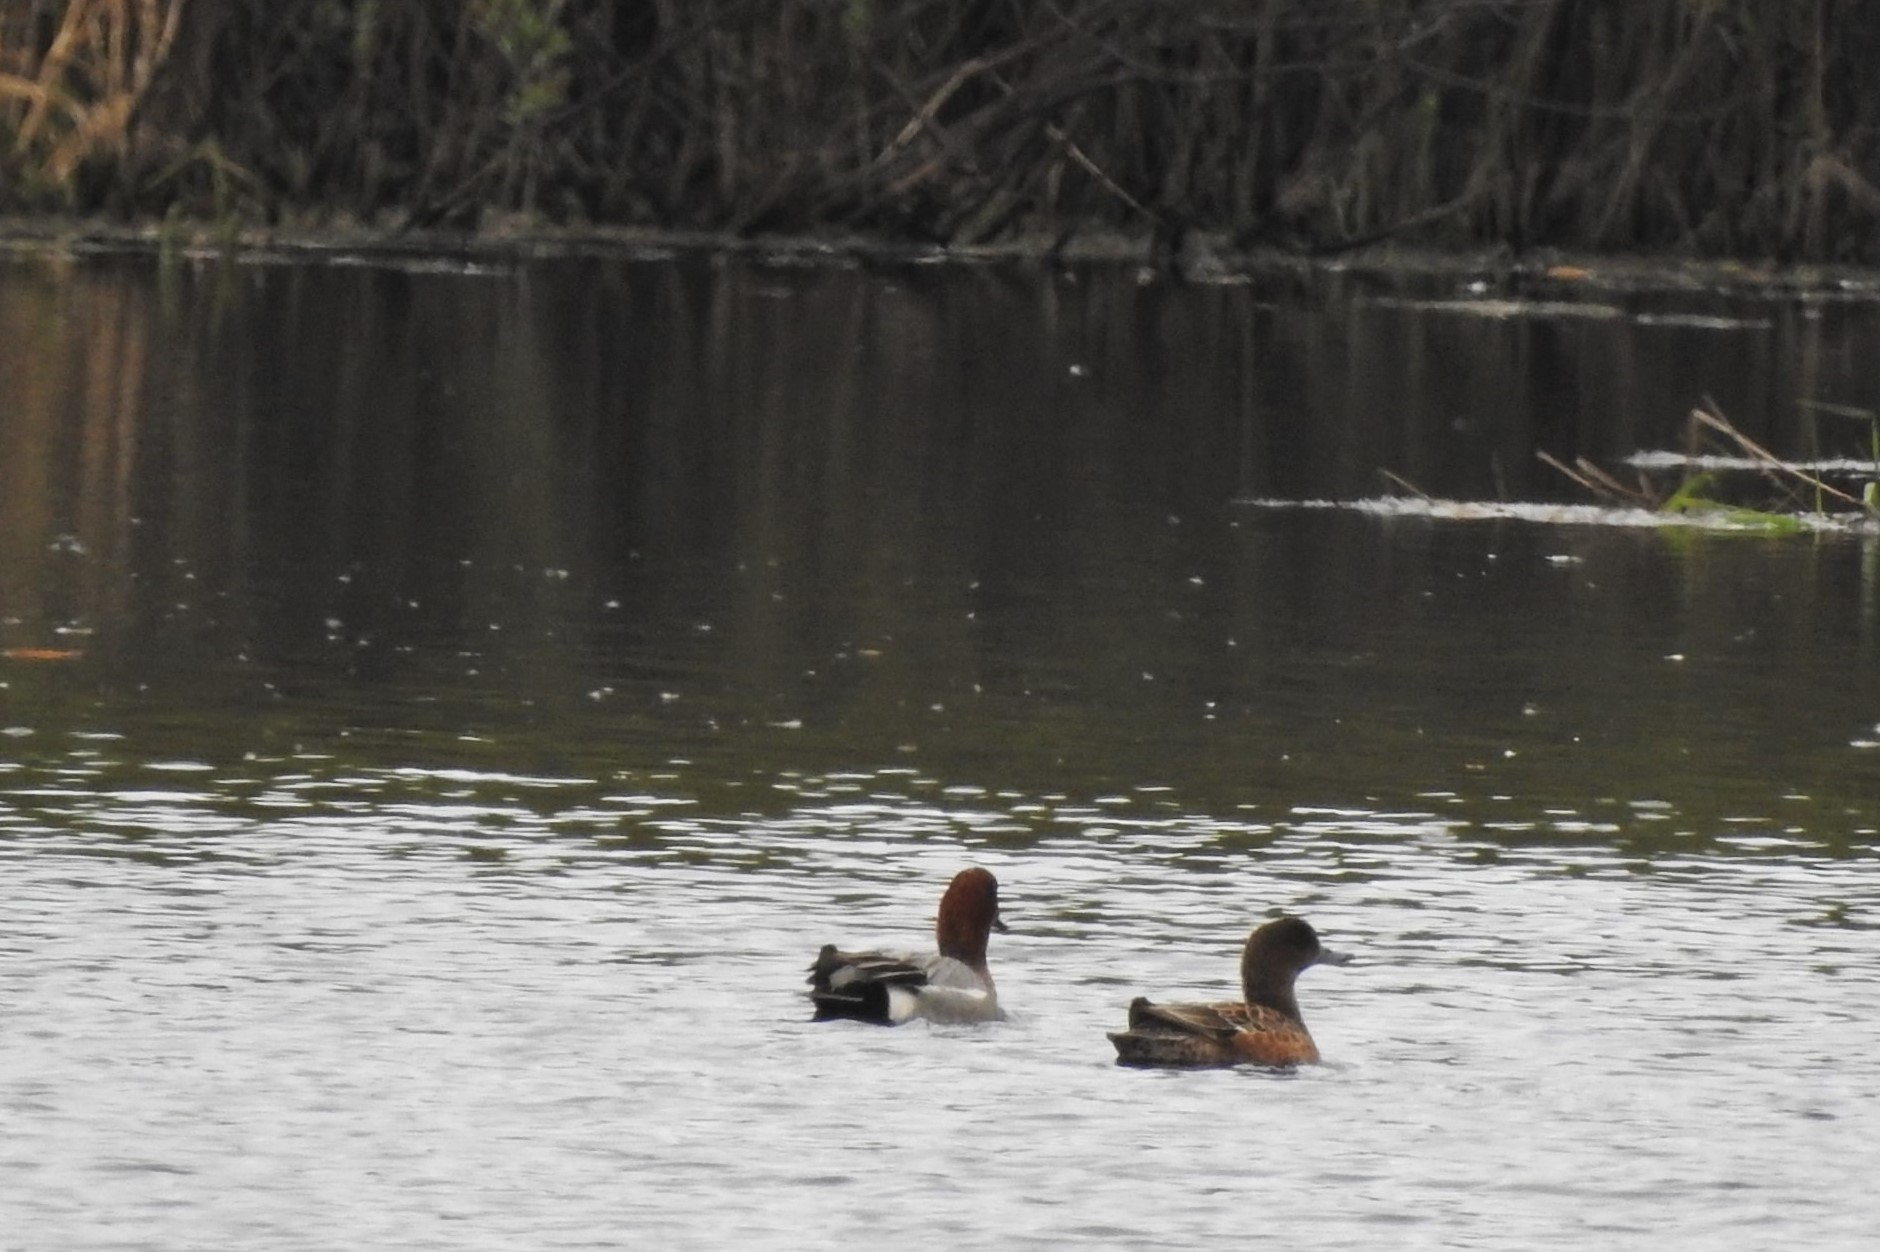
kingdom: Animalia
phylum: Chordata
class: Aves
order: Anseriformes
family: Anatidae
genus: Mareca
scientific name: Mareca penelope
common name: Eurasian wigeon
